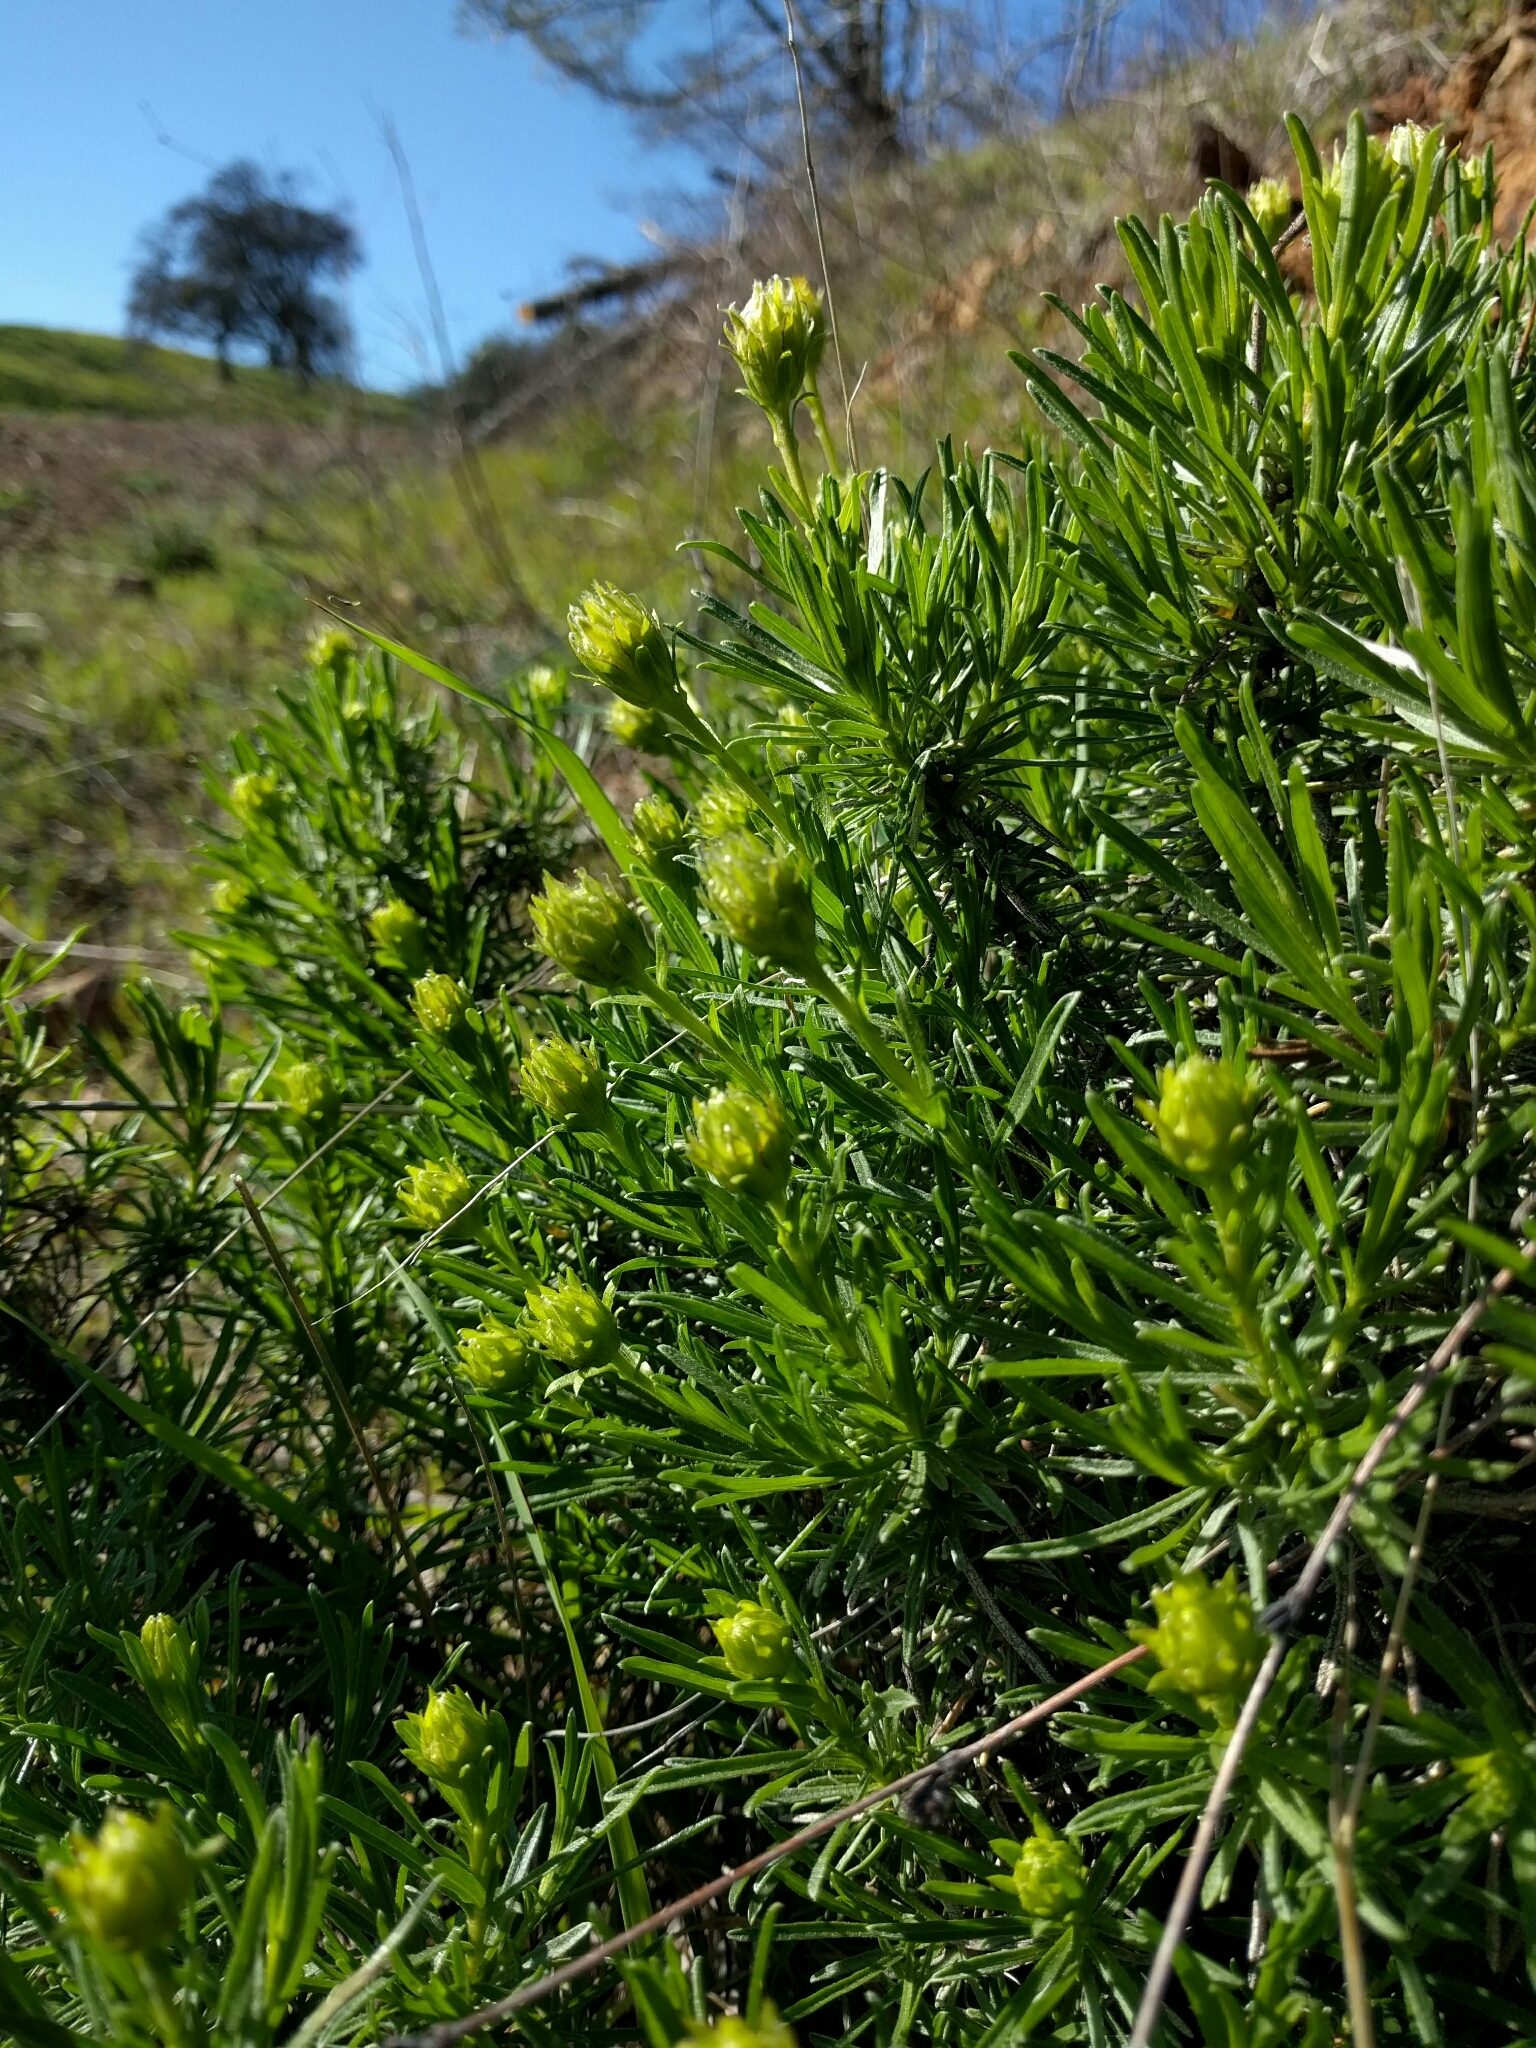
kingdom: Plantae
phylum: Tracheophyta
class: Magnoliopsida
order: Asterales
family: Asteraceae
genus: Ericameria
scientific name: Ericameria linearifolia
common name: Interior goldenbush
